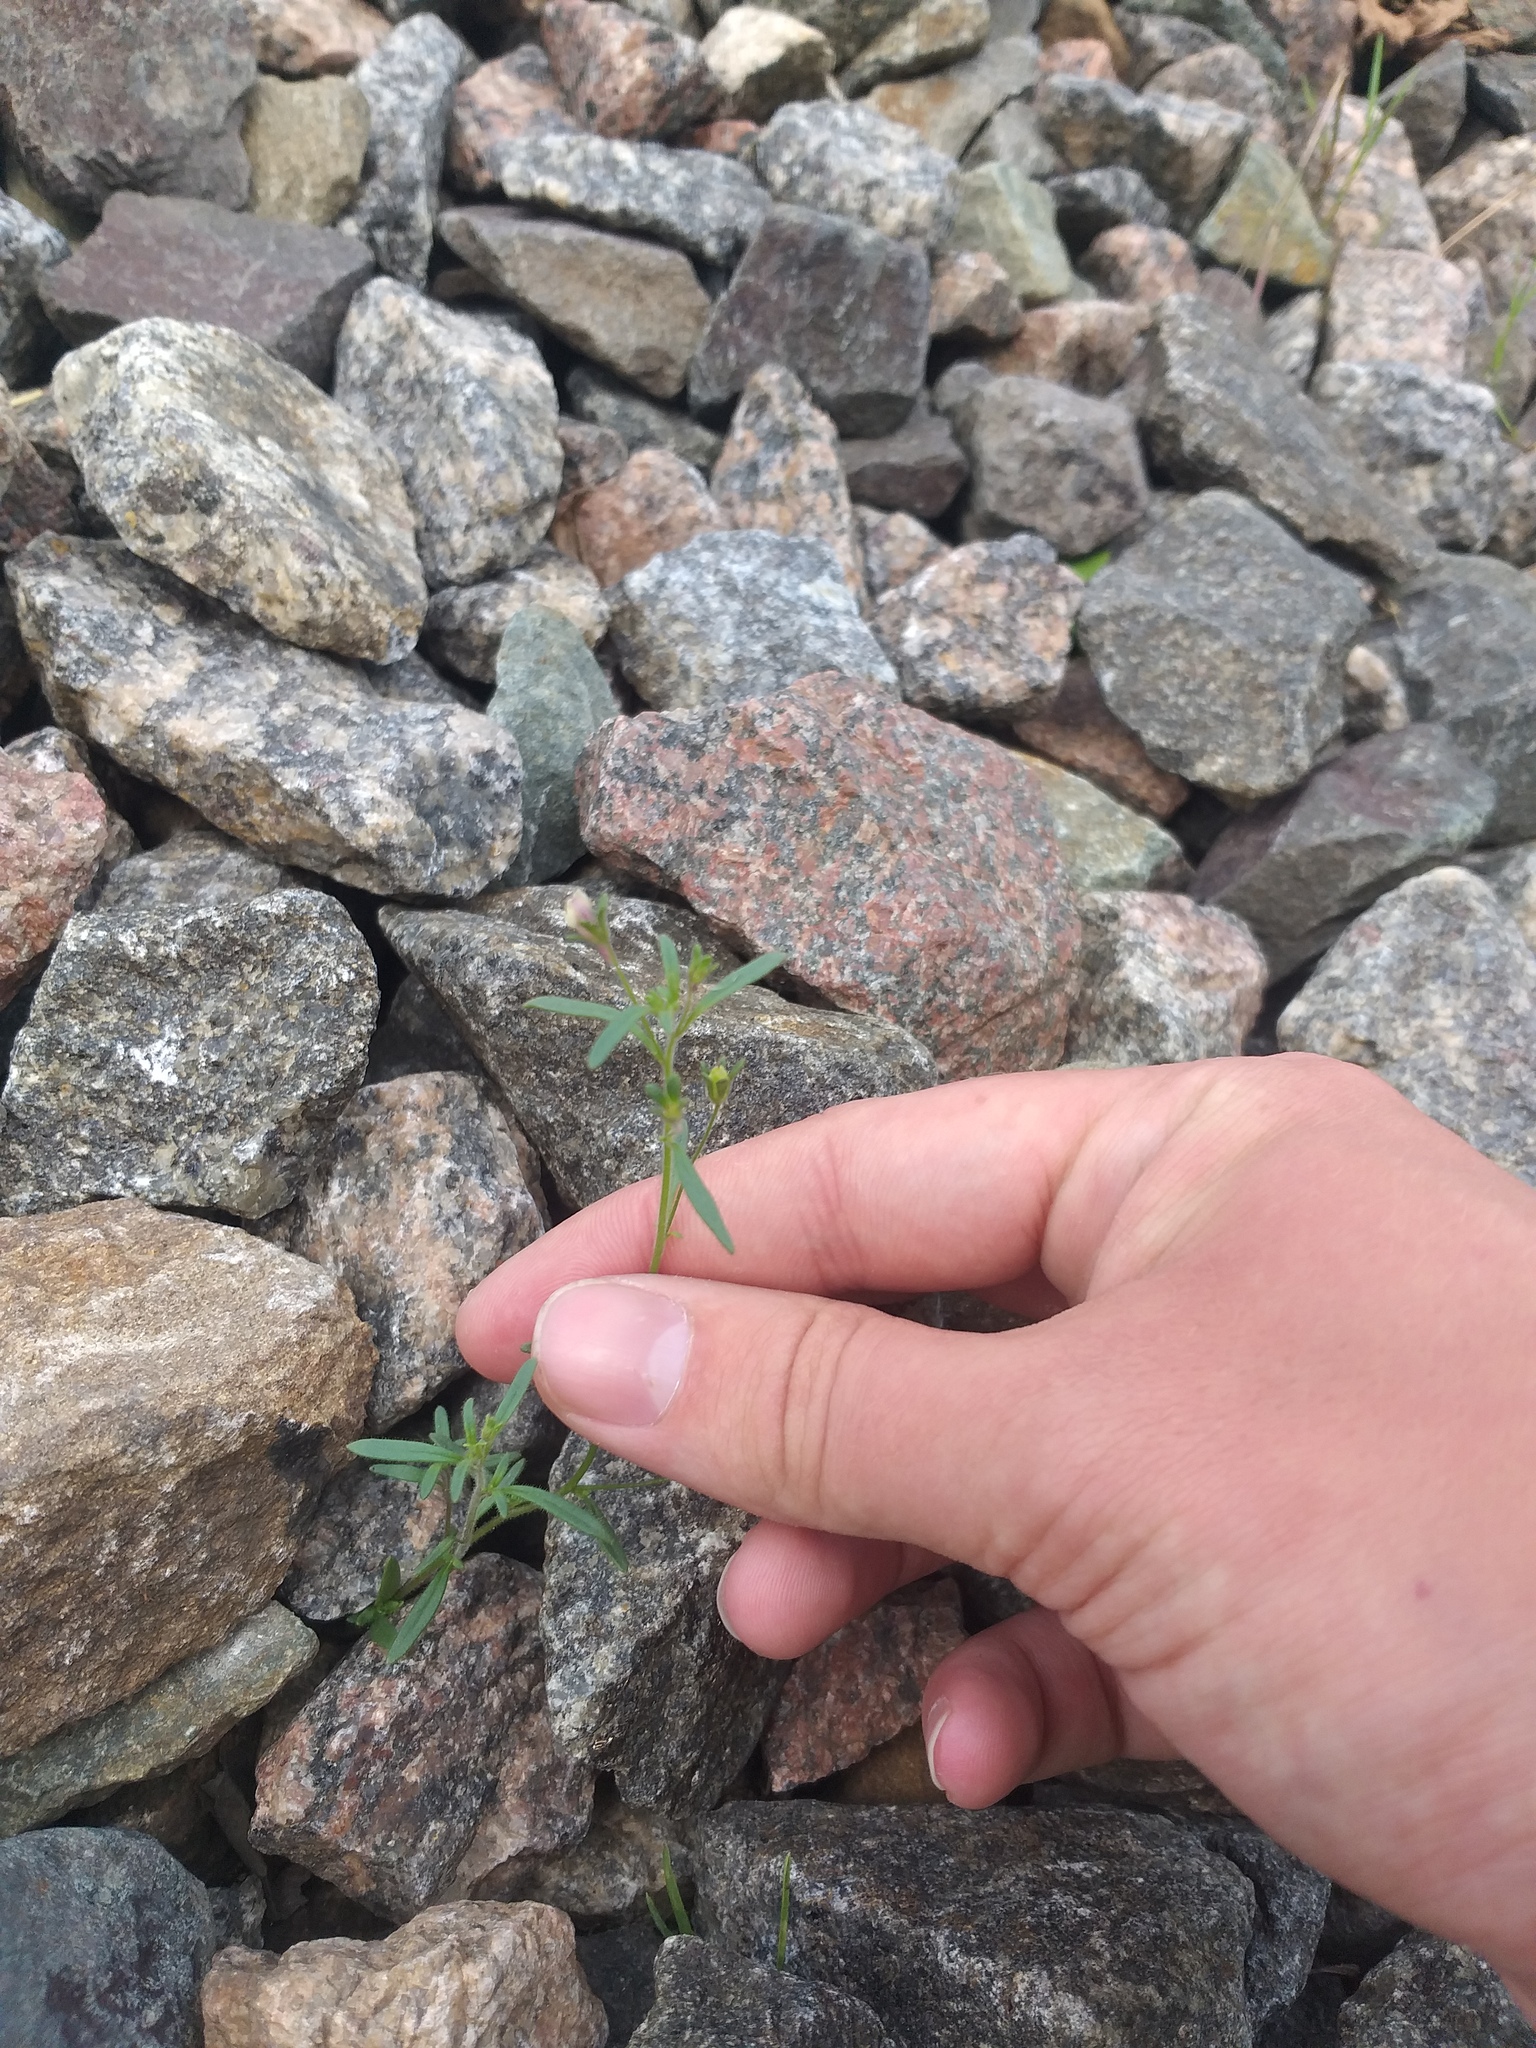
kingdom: Plantae
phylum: Tracheophyta
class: Magnoliopsida
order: Lamiales
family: Plantaginaceae
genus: Chaenorhinum
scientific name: Chaenorhinum minus
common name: Dwarf snapdragon
